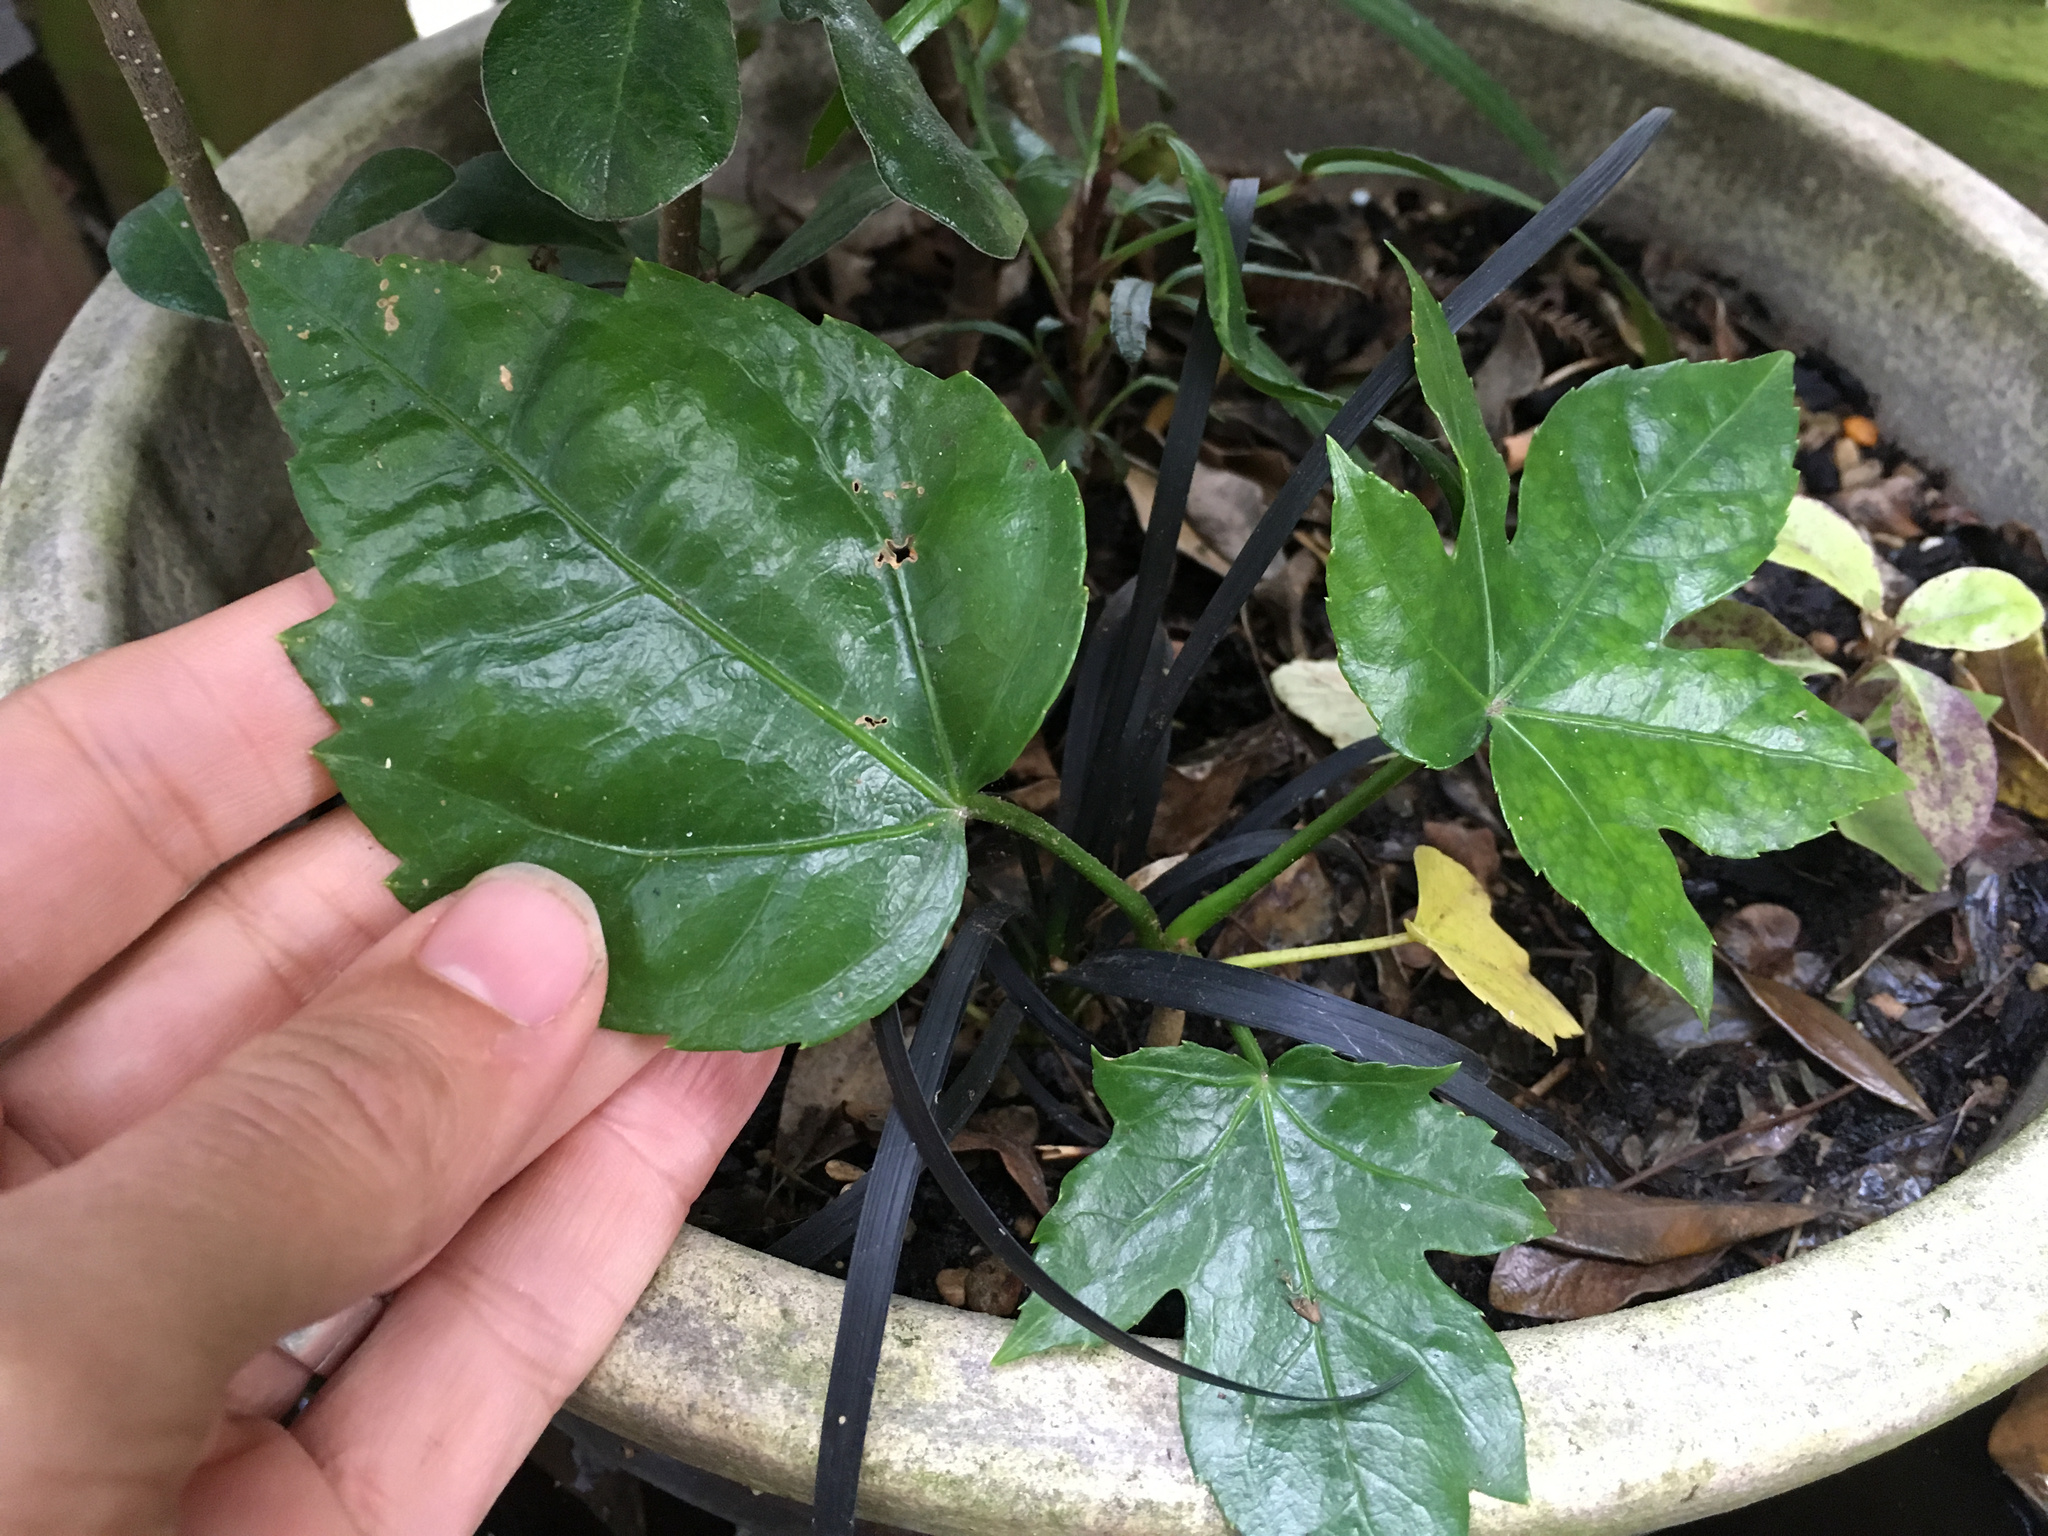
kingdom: Plantae
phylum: Tracheophyta
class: Magnoliopsida
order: Apiales
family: Araliaceae
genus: Fatsia
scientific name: Fatsia japonica
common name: Fatsia
